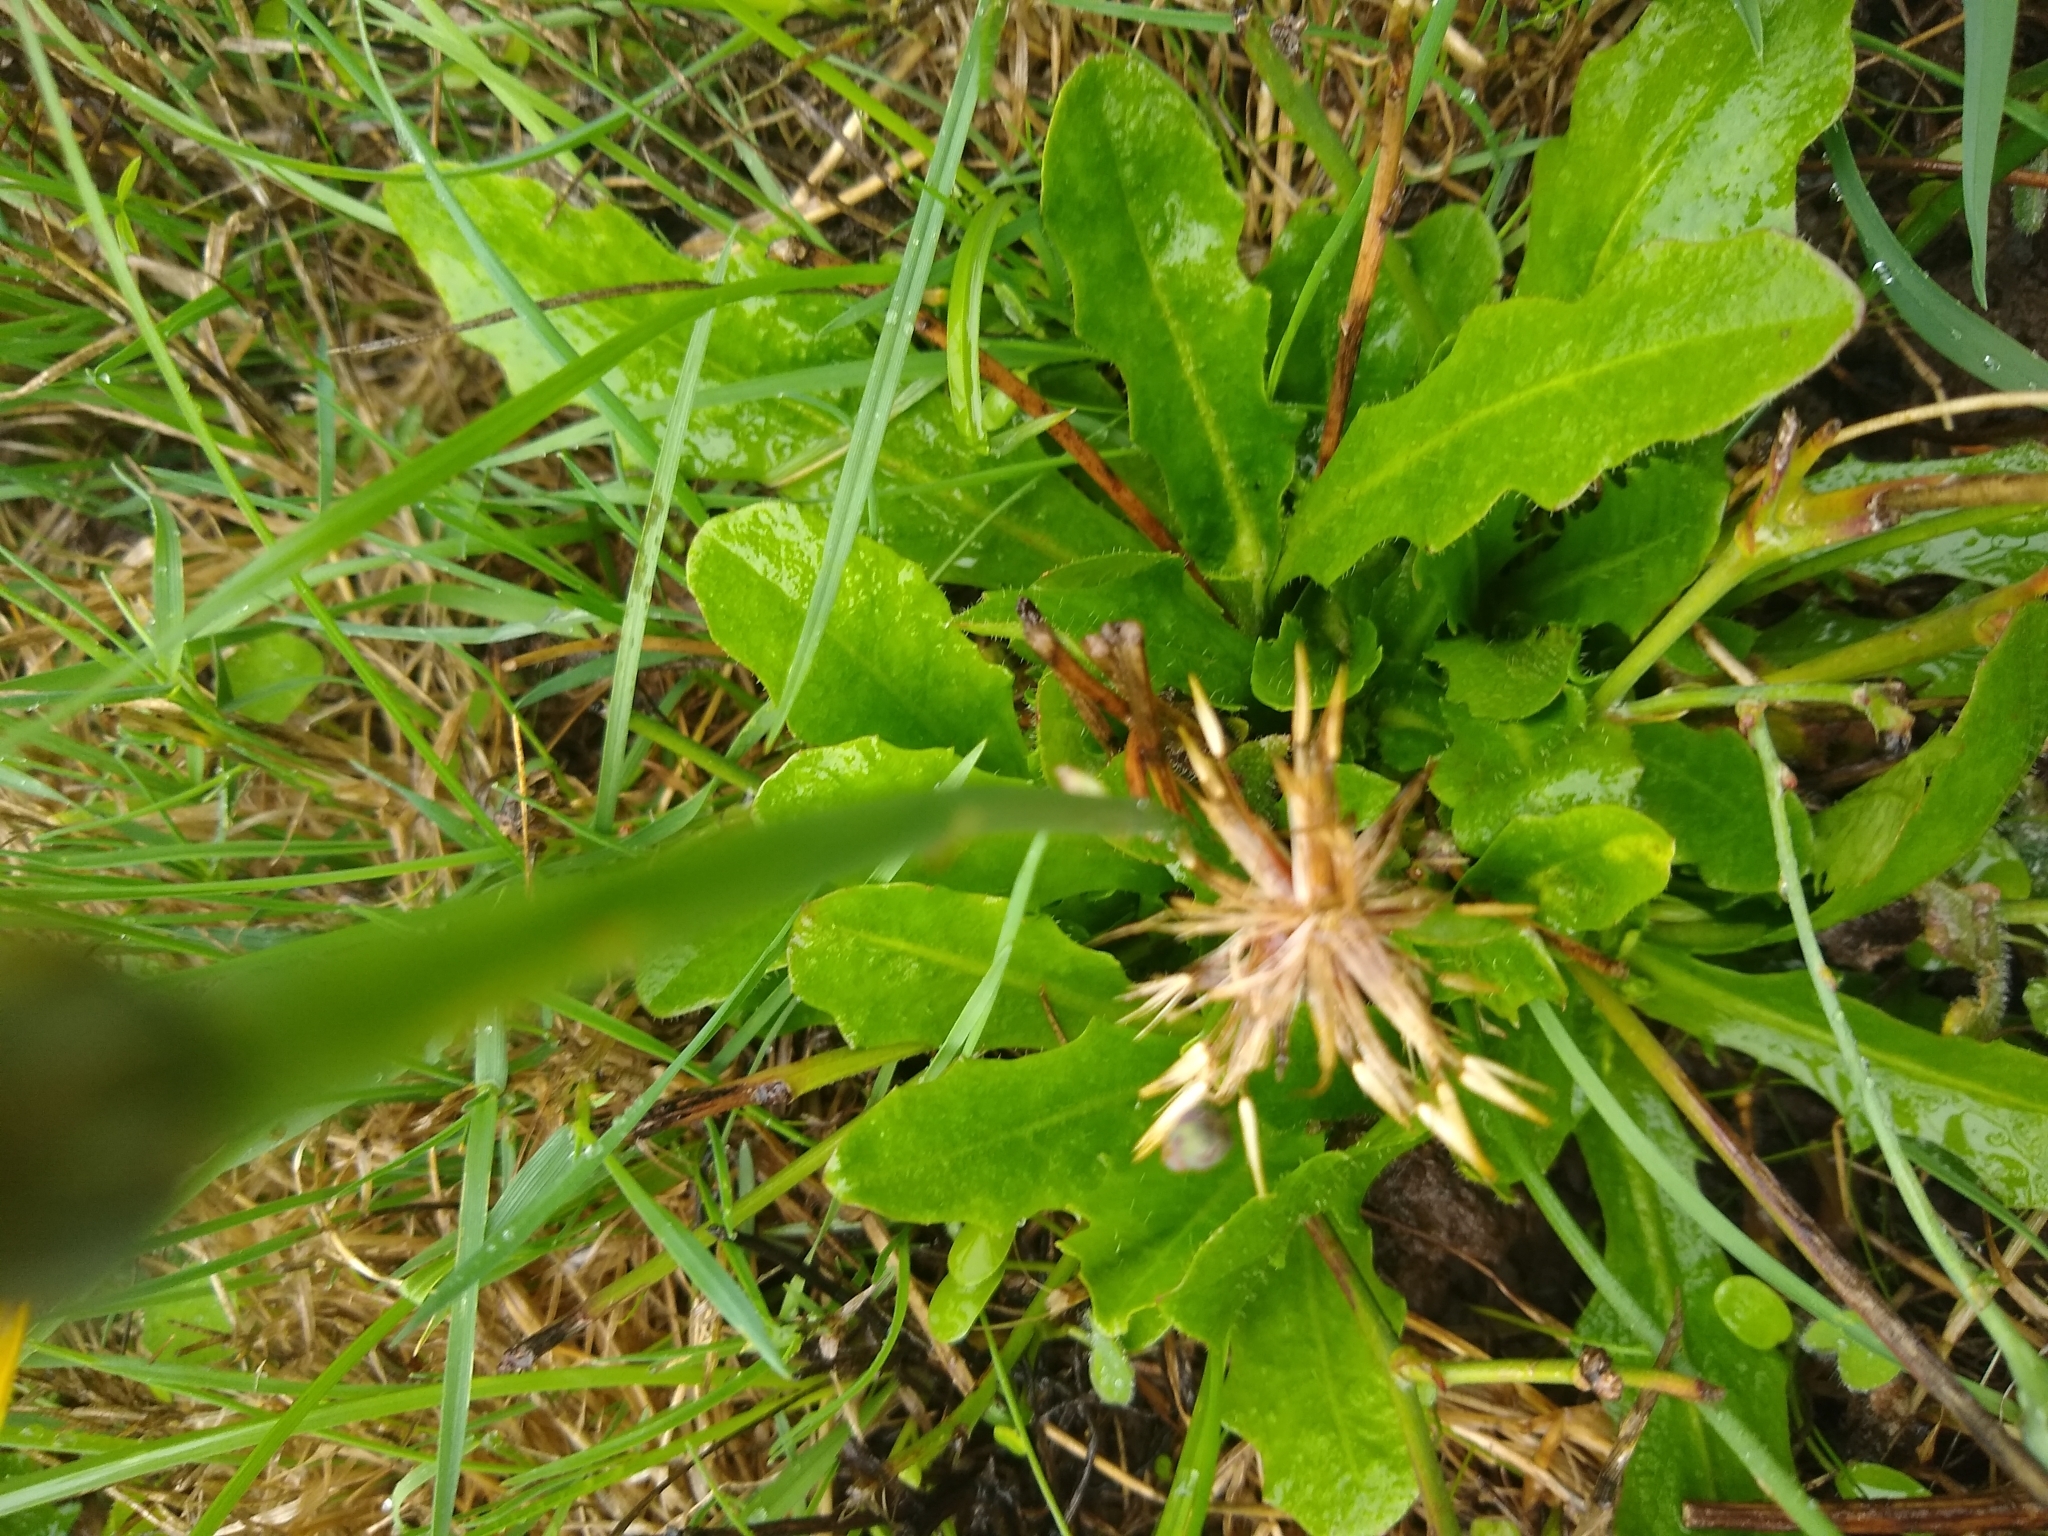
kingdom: Plantae
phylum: Tracheophyta
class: Magnoliopsida
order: Asterales
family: Asteraceae
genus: Hypochaeris
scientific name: Hypochaeris radicata
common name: Flatweed
